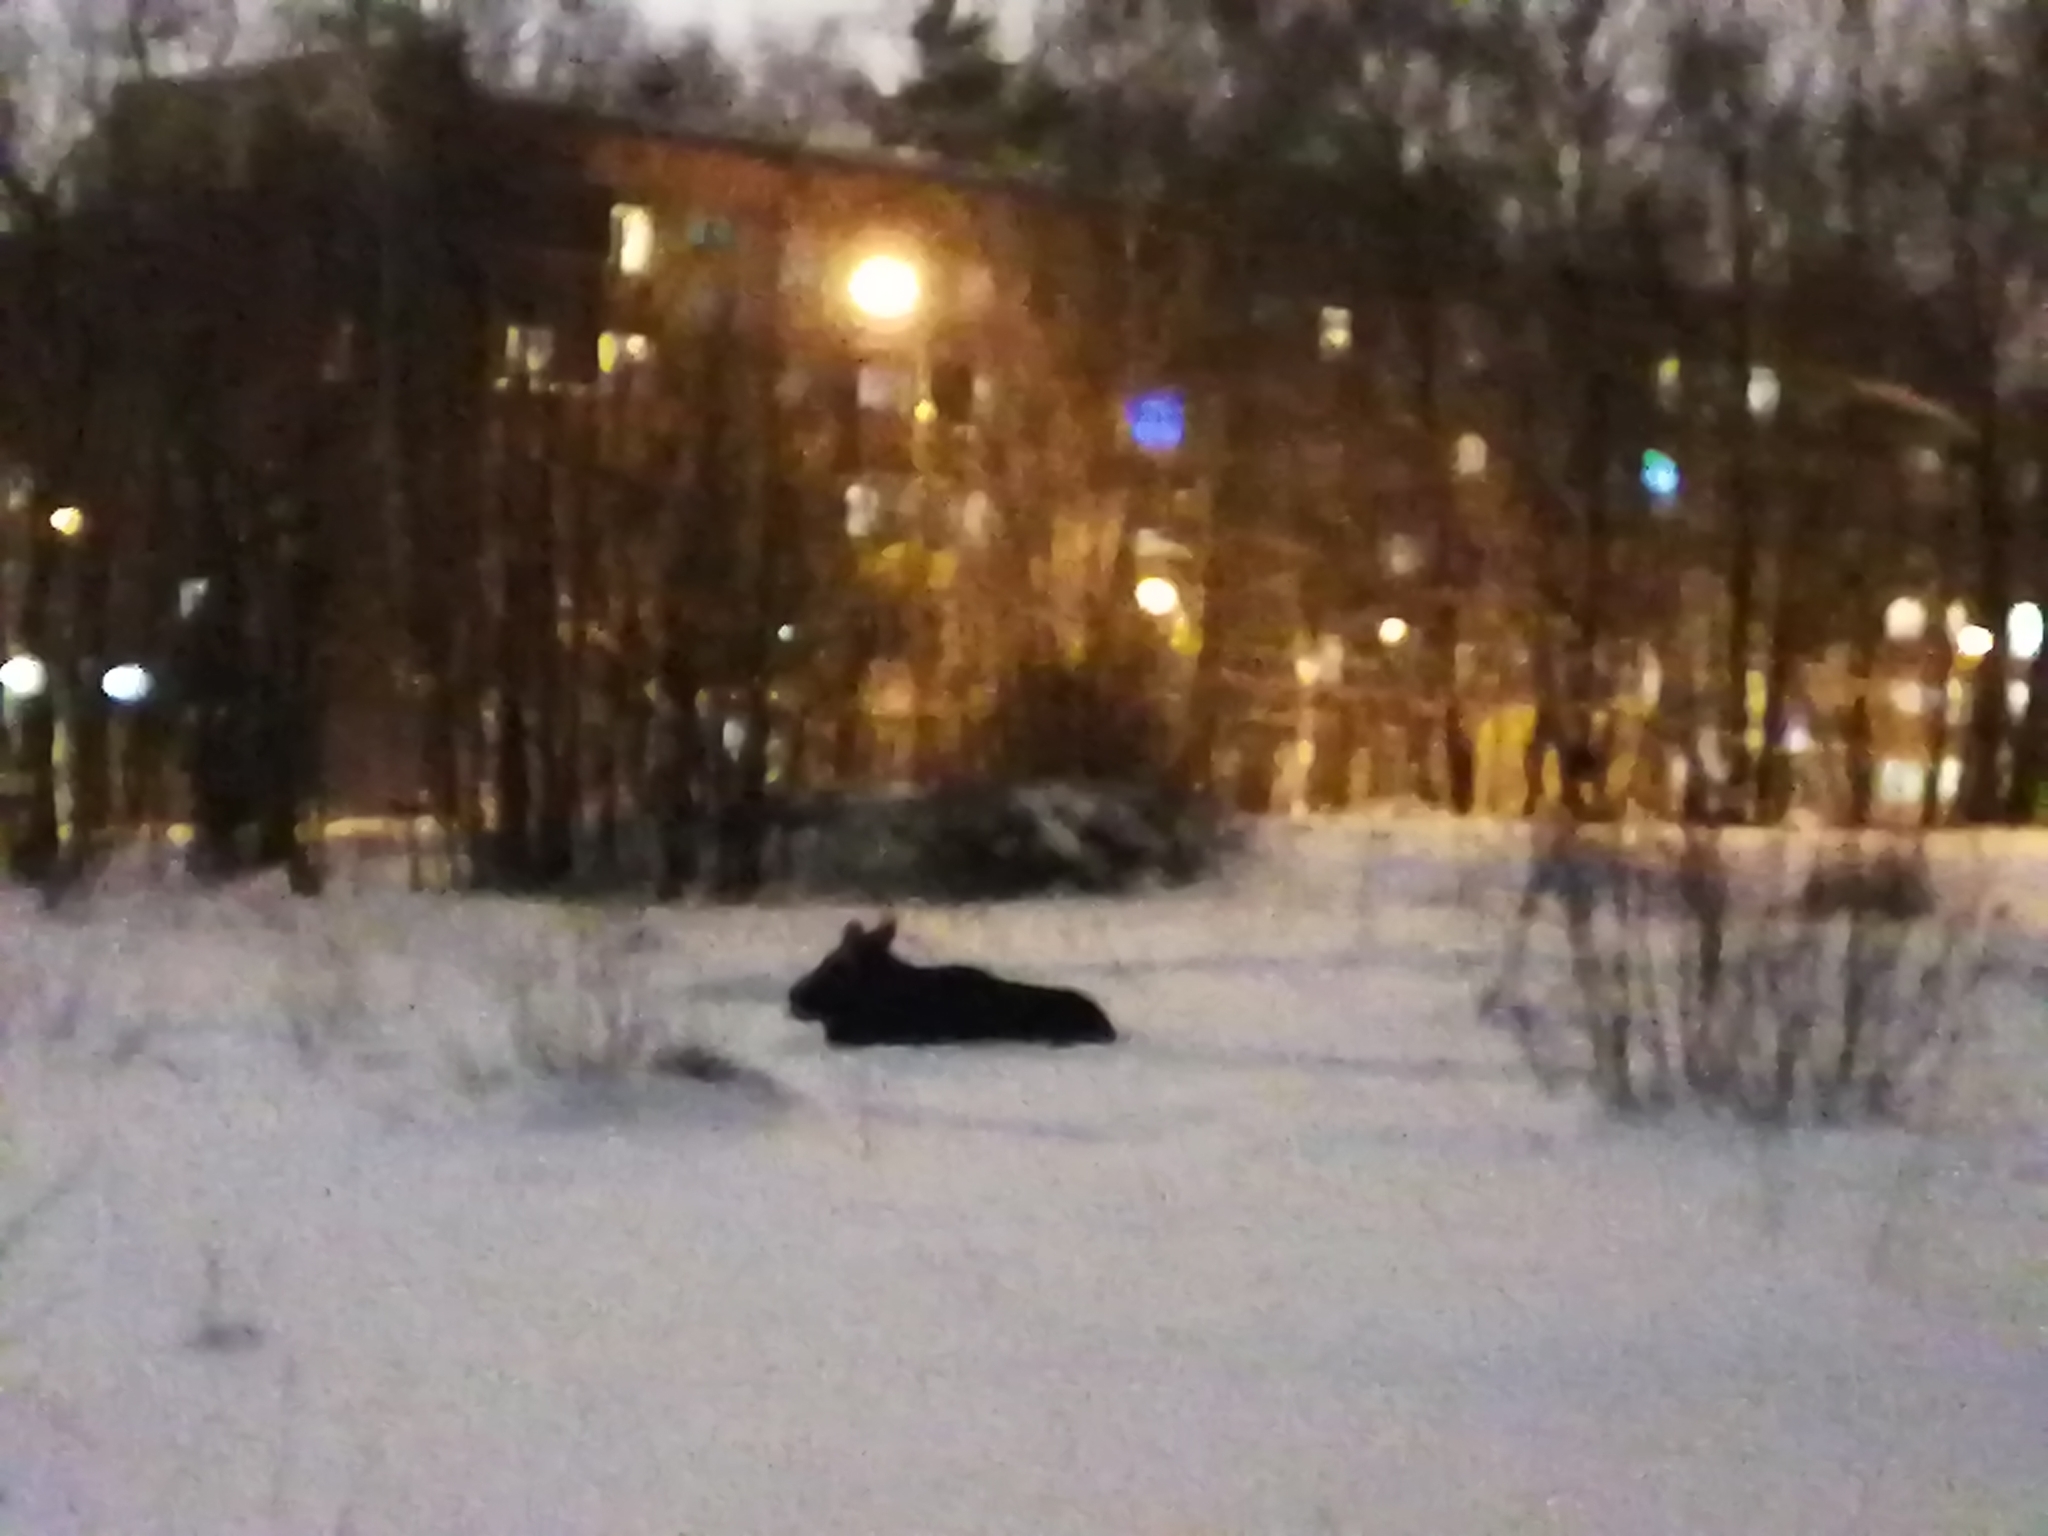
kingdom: Animalia
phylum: Chordata
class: Mammalia
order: Artiodactyla
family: Cervidae
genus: Alces
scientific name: Alces alces
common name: Moose
